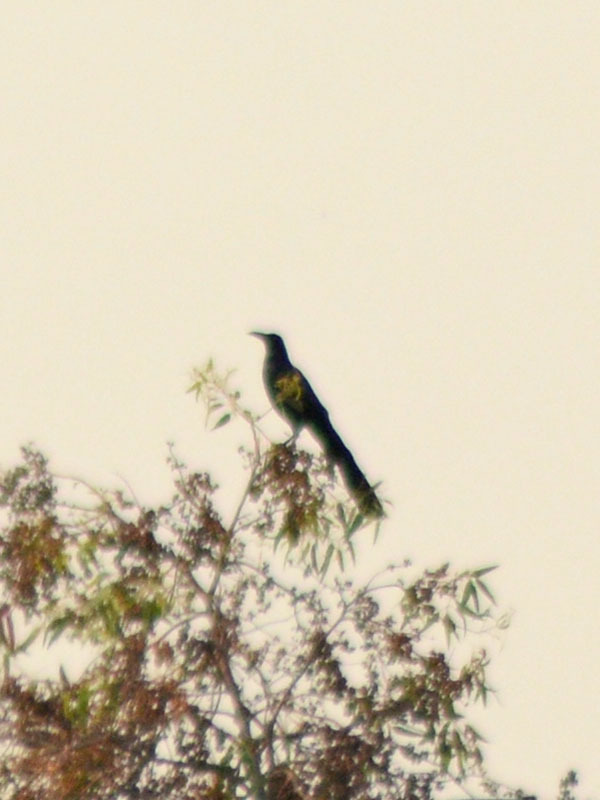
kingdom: Animalia
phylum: Chordata
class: Aves
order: Passeriformes
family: Icteridae
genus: Quiscalus
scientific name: Quiscalus mexicanus
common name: Great-tailed grackle
